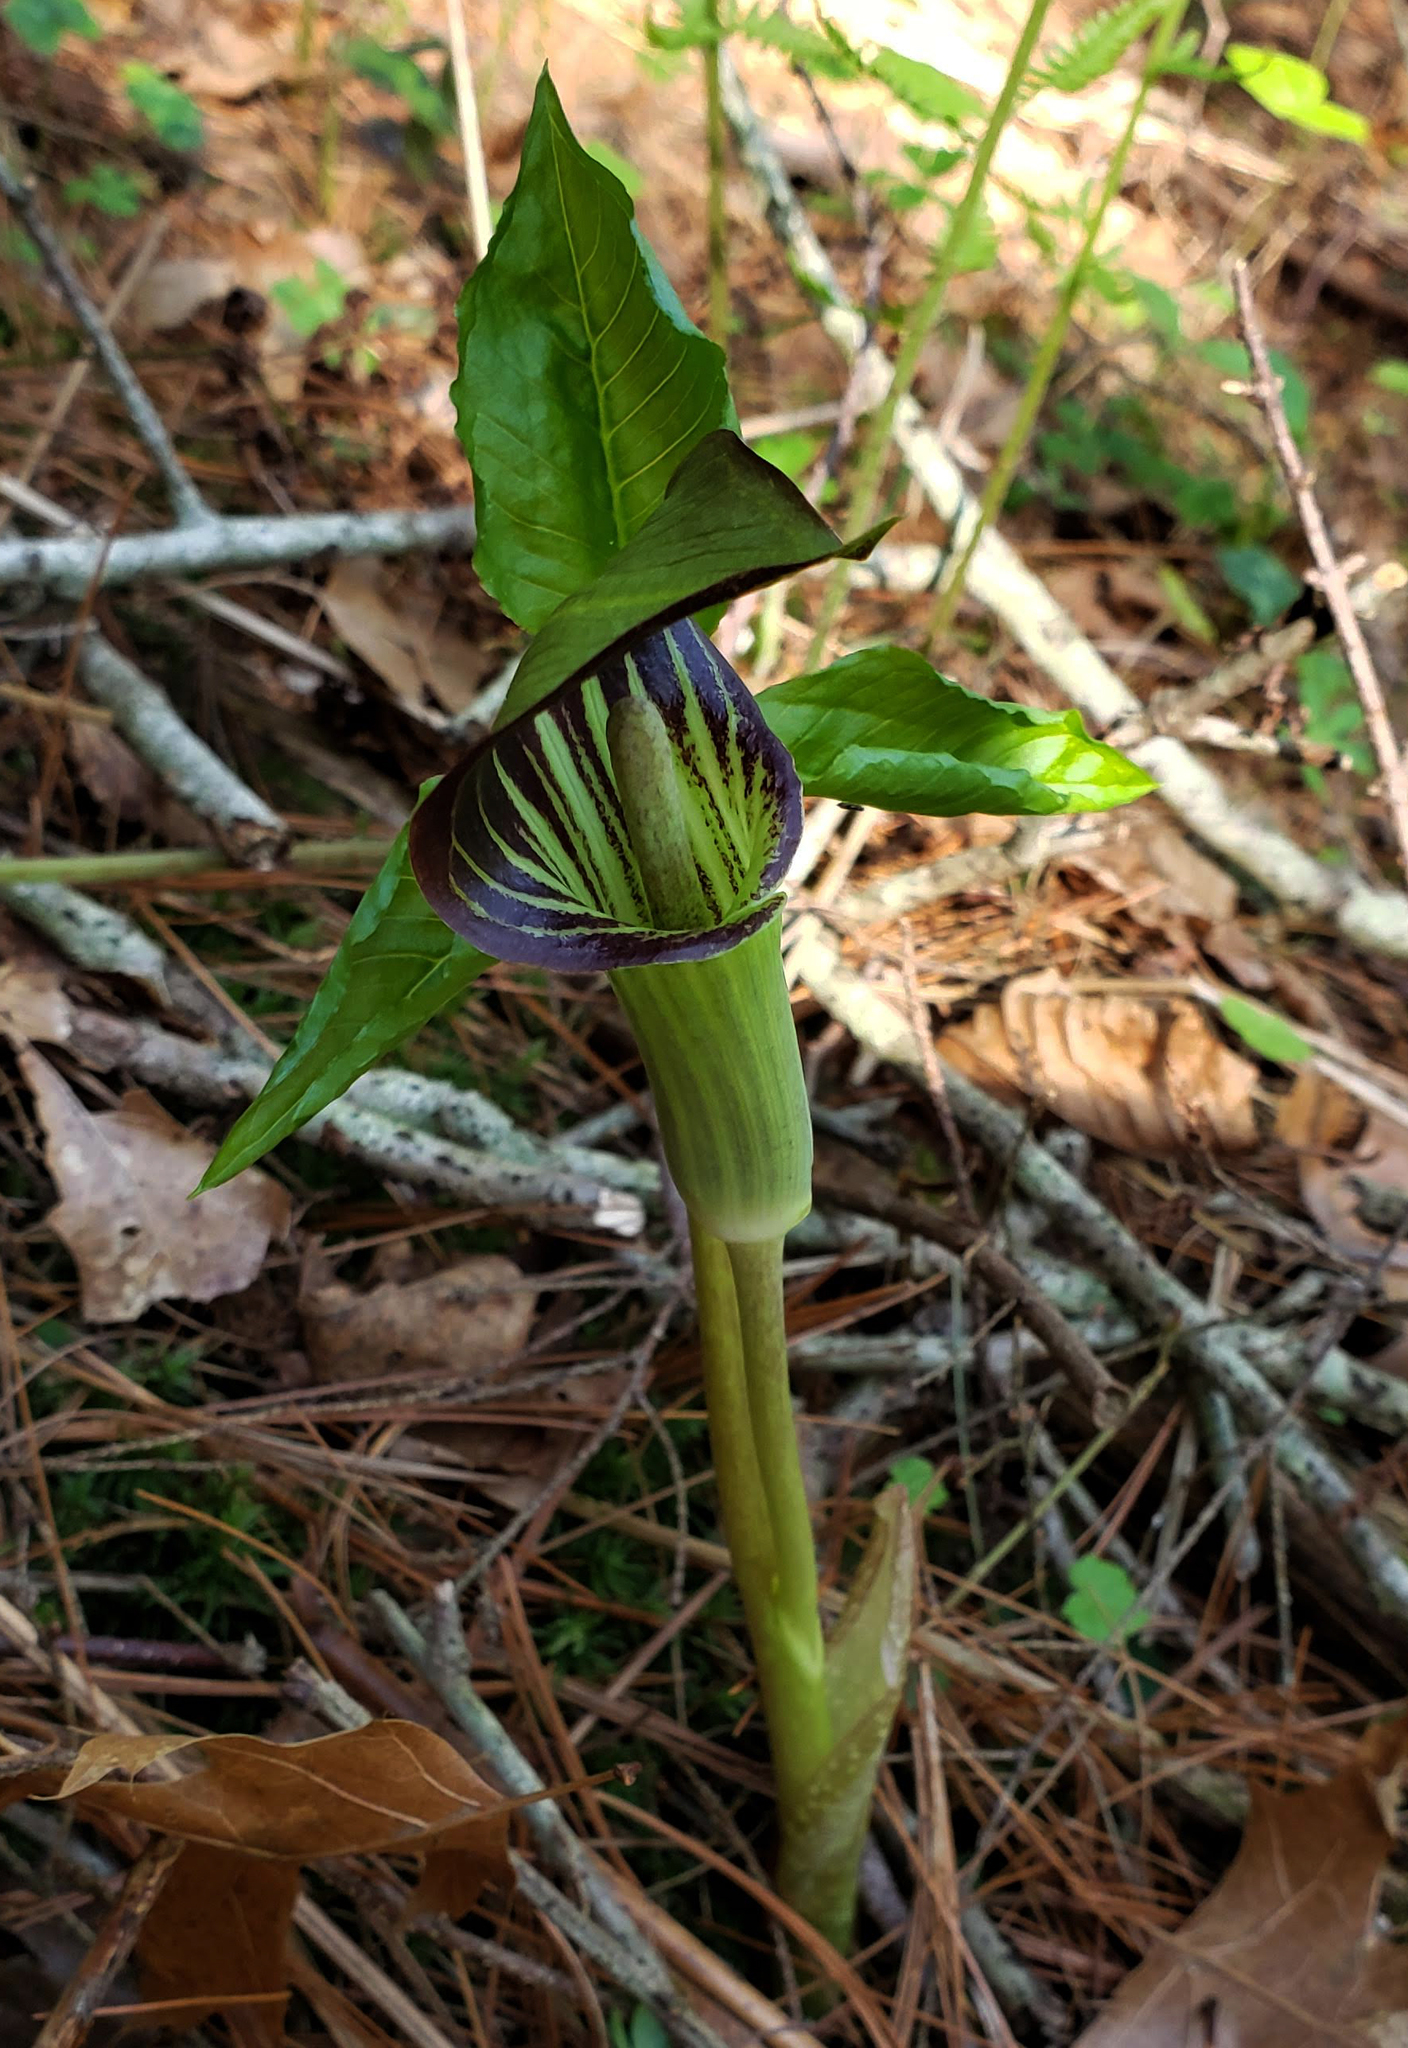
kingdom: Plantae
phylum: Tracheophyta
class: Liliopsida
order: Alismatales
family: Araceae
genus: Arisaema
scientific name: Arisaema triphyllum
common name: Jack-in-the-pulpit
